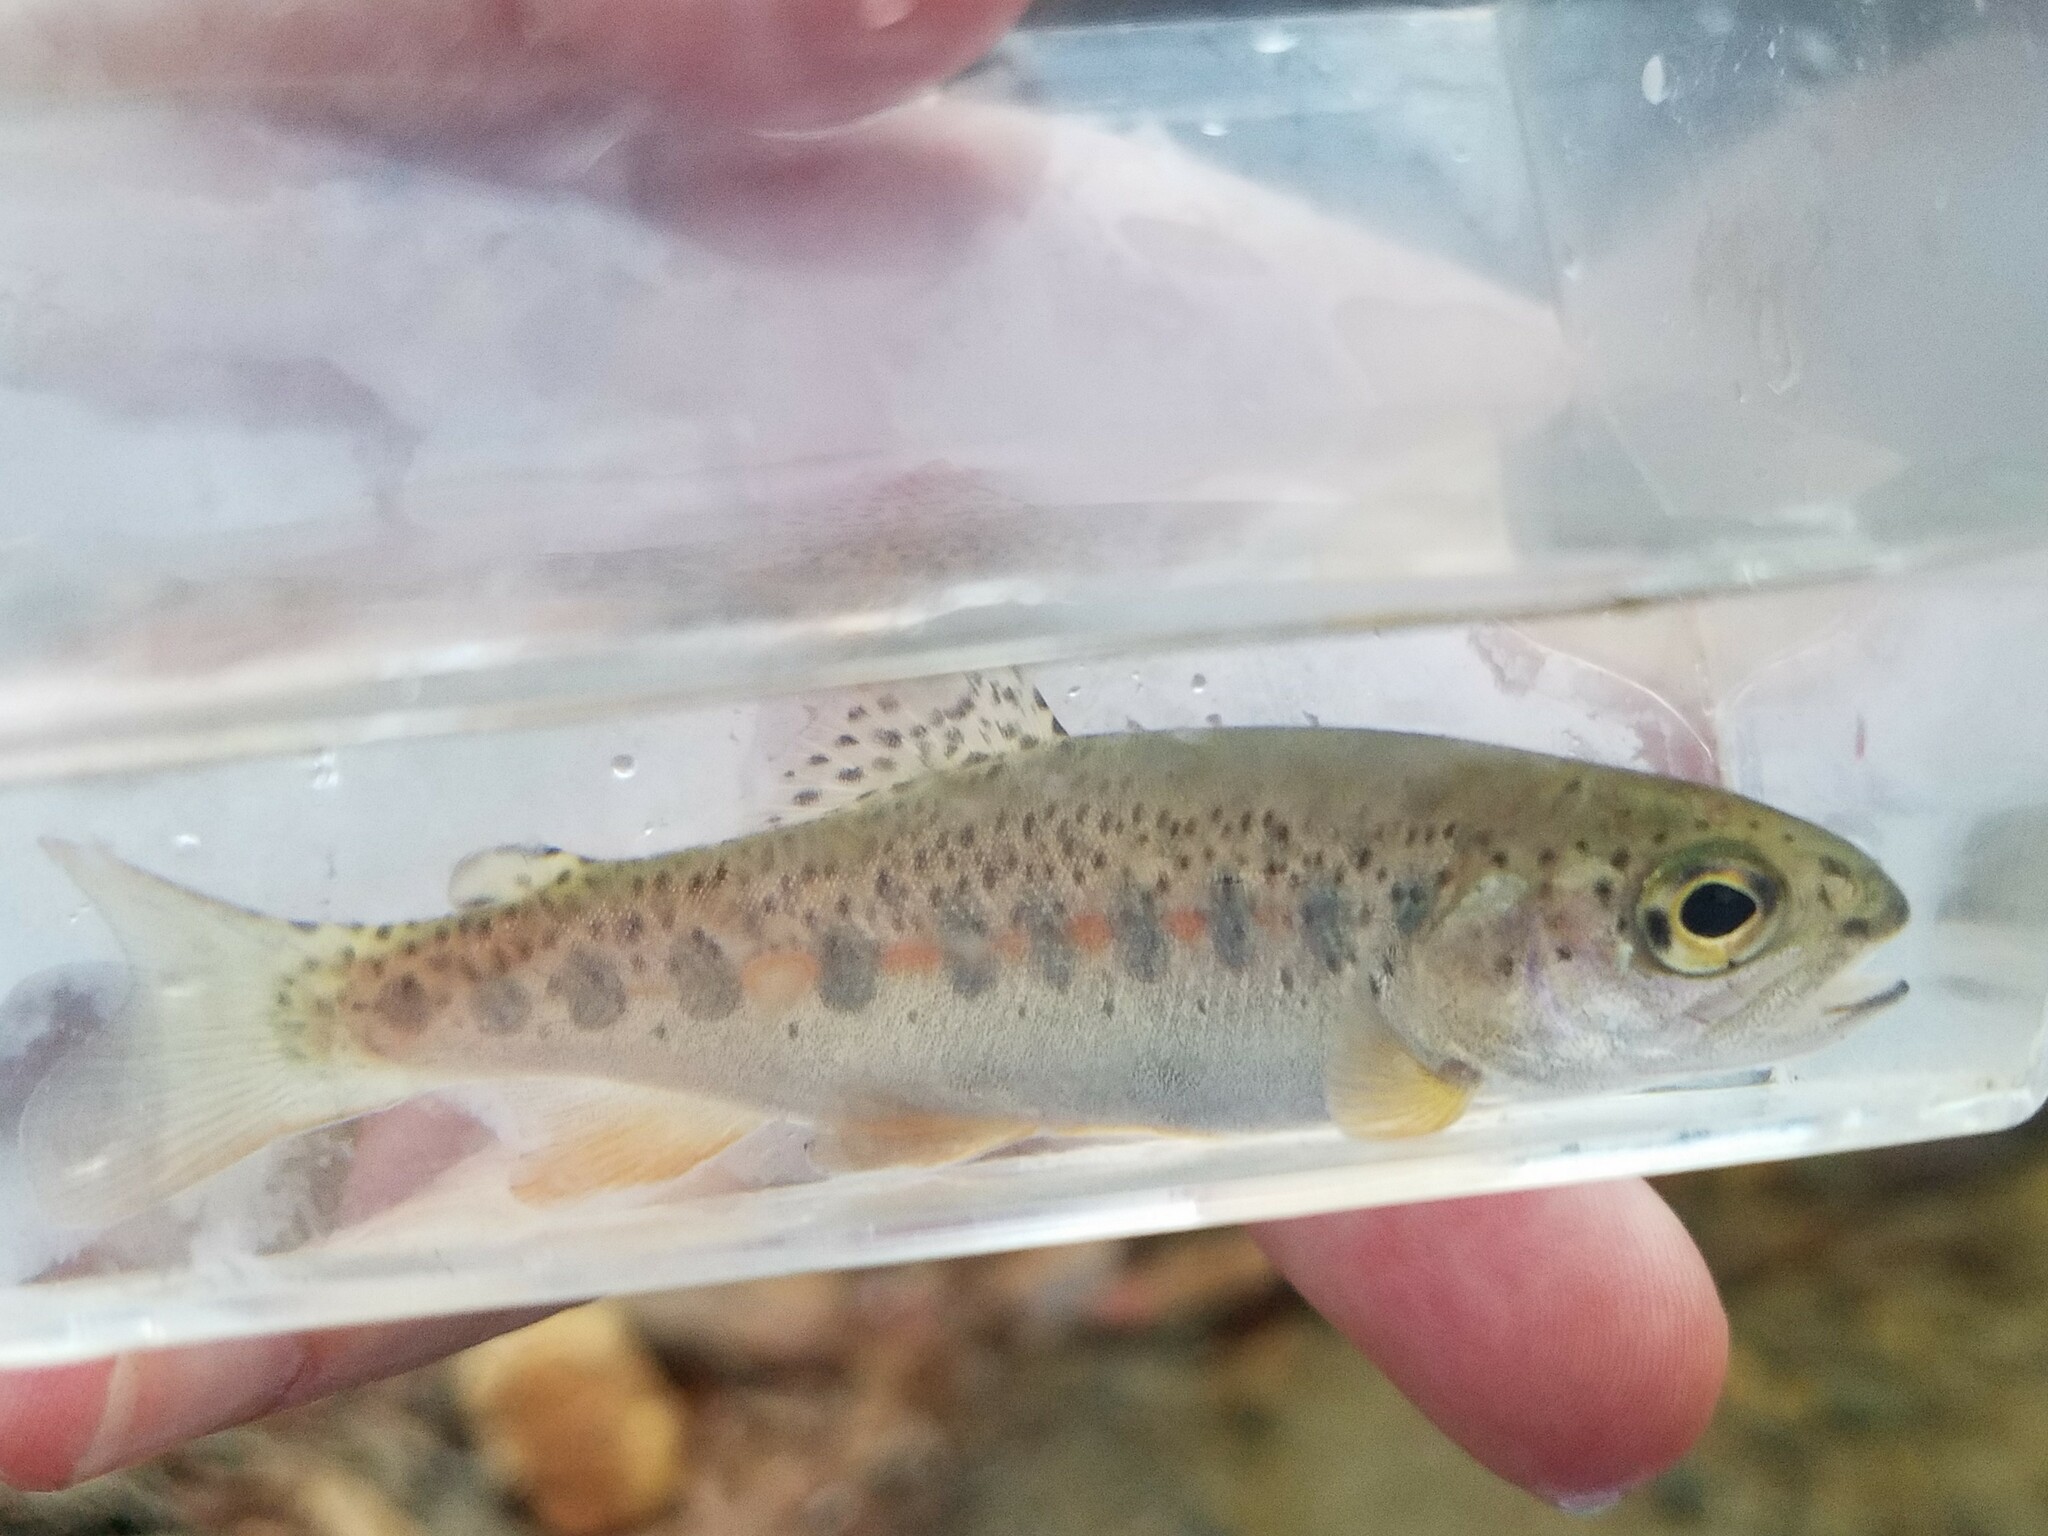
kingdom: Animalia
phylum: Chordata
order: Salmoniformes
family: Salmonidae
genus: Oncorhynchus
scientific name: Oncorhynchus mykiss
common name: Rainbow trout
